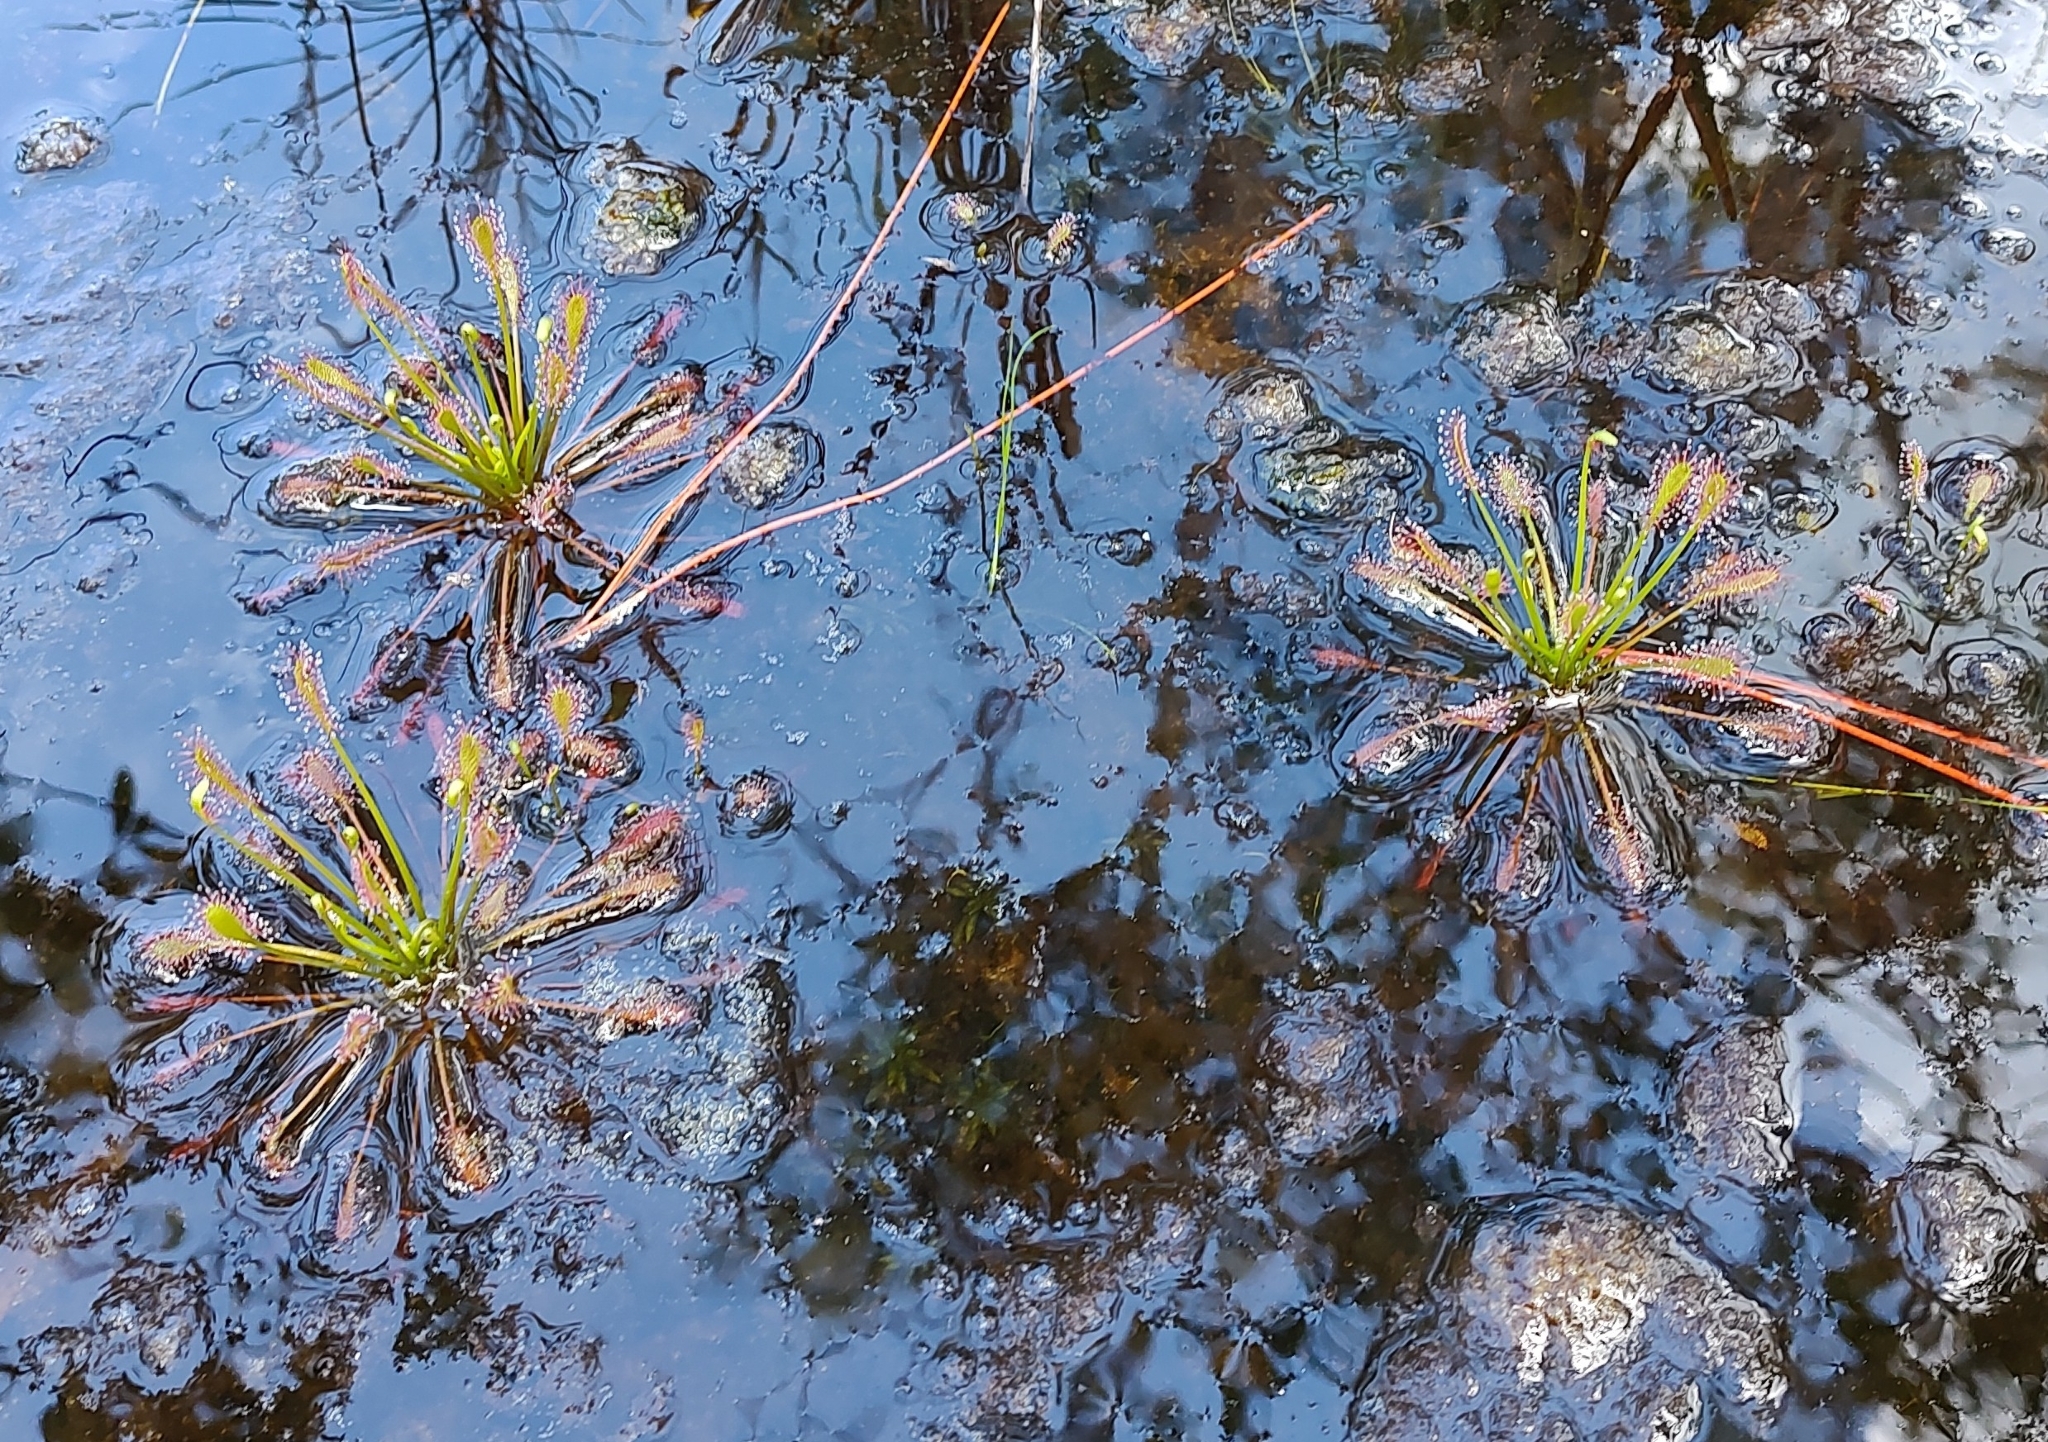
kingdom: Plantae
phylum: Tracheophyta
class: Magnoliopsida
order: Caryophyllales
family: Droseraceae
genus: Drosera
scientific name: Drosera intermedia
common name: Oblong-leaved sundew
